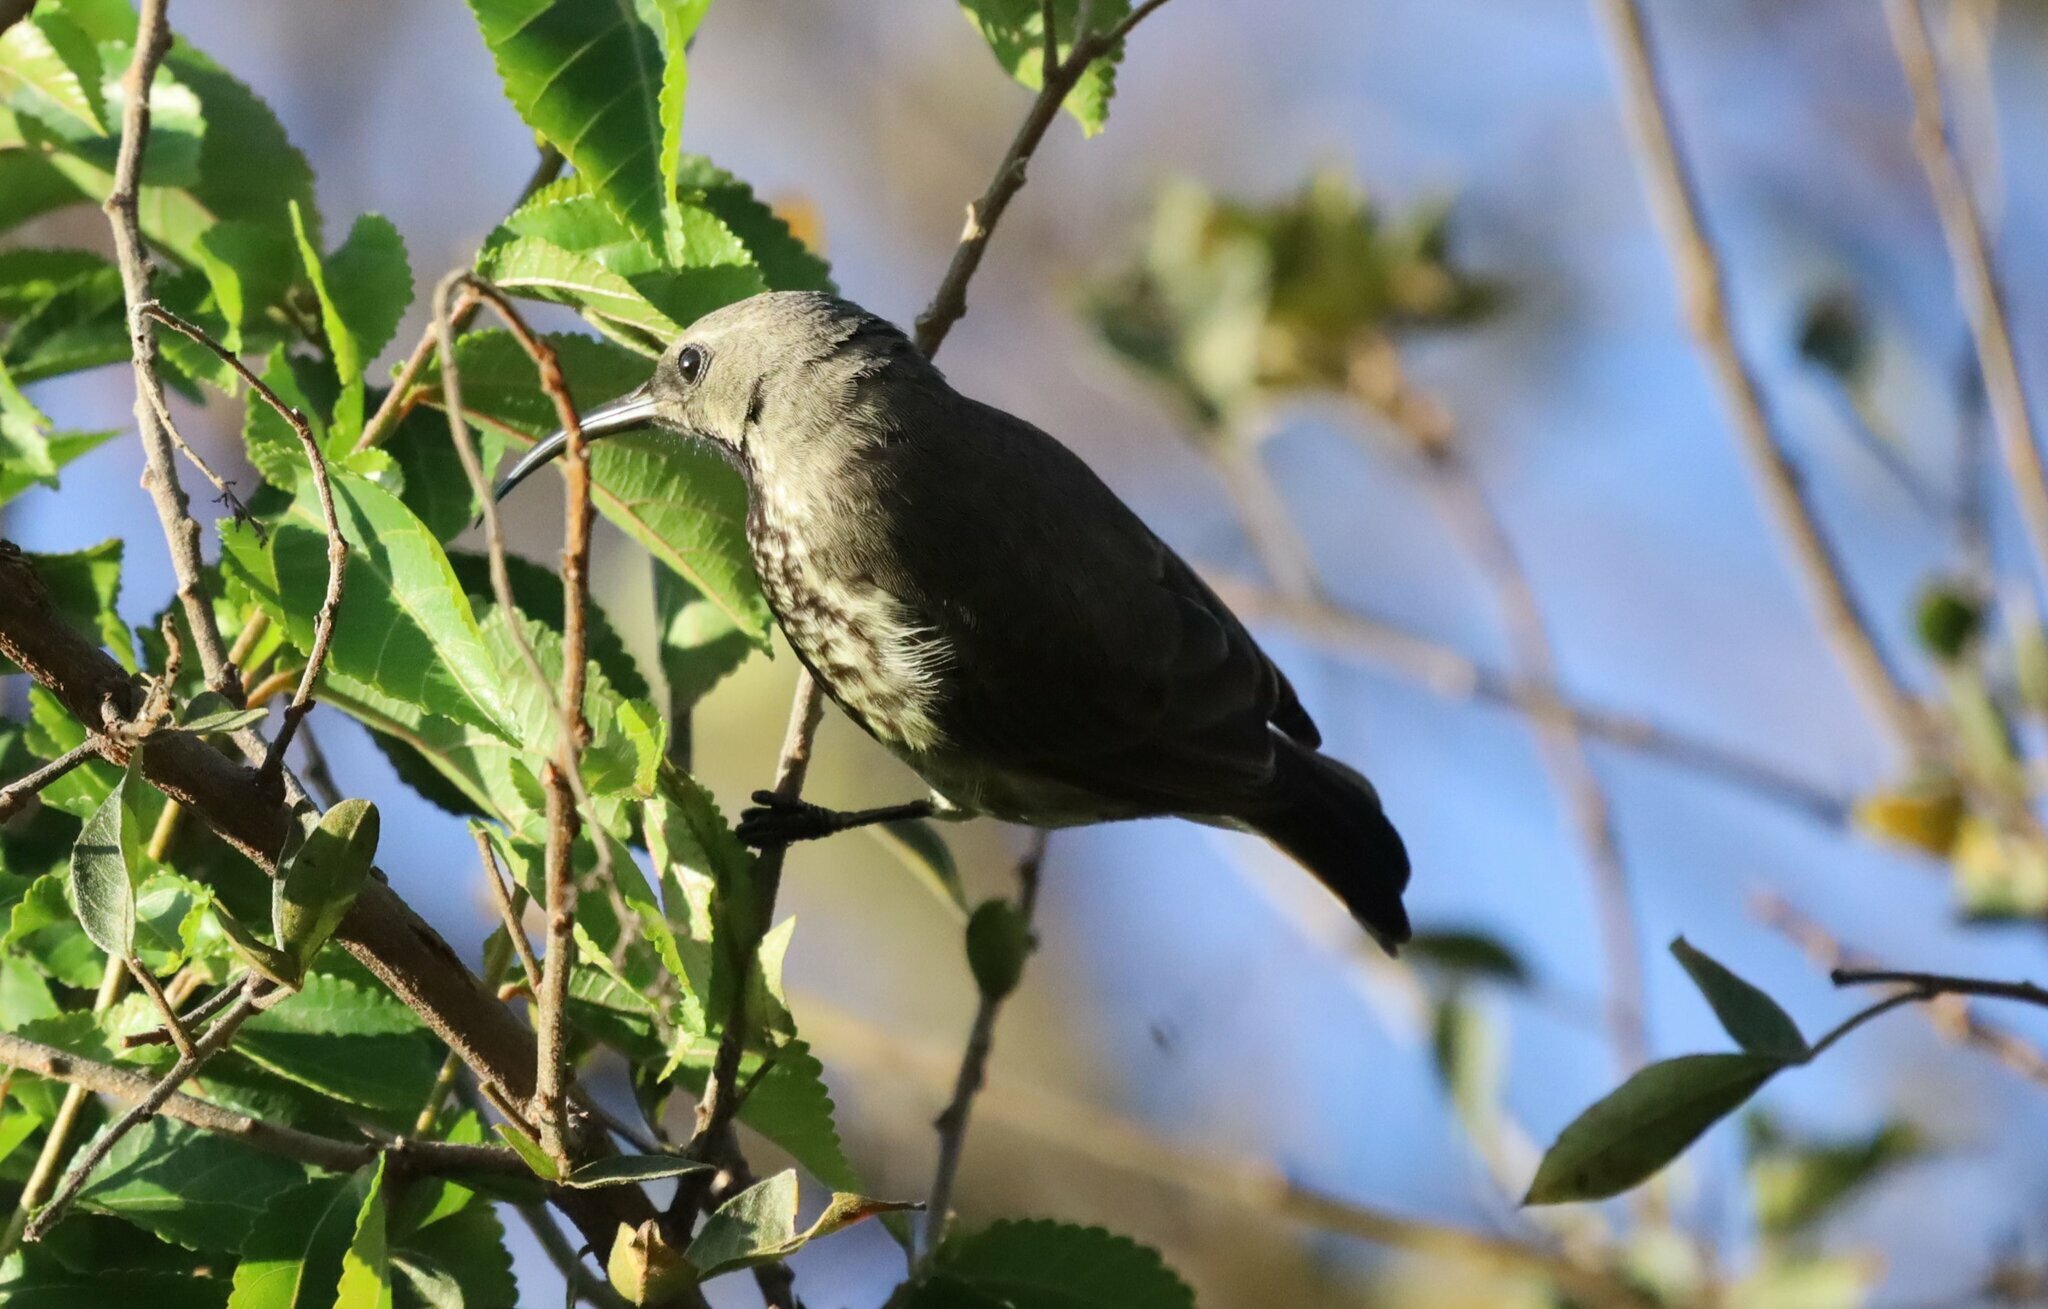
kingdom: Animalia
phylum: Chordata
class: Aves
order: Passeriformes
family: Nectariniidae
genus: Chalcomitra
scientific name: Chalcomitra amethystina
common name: Amethyst sunbird
